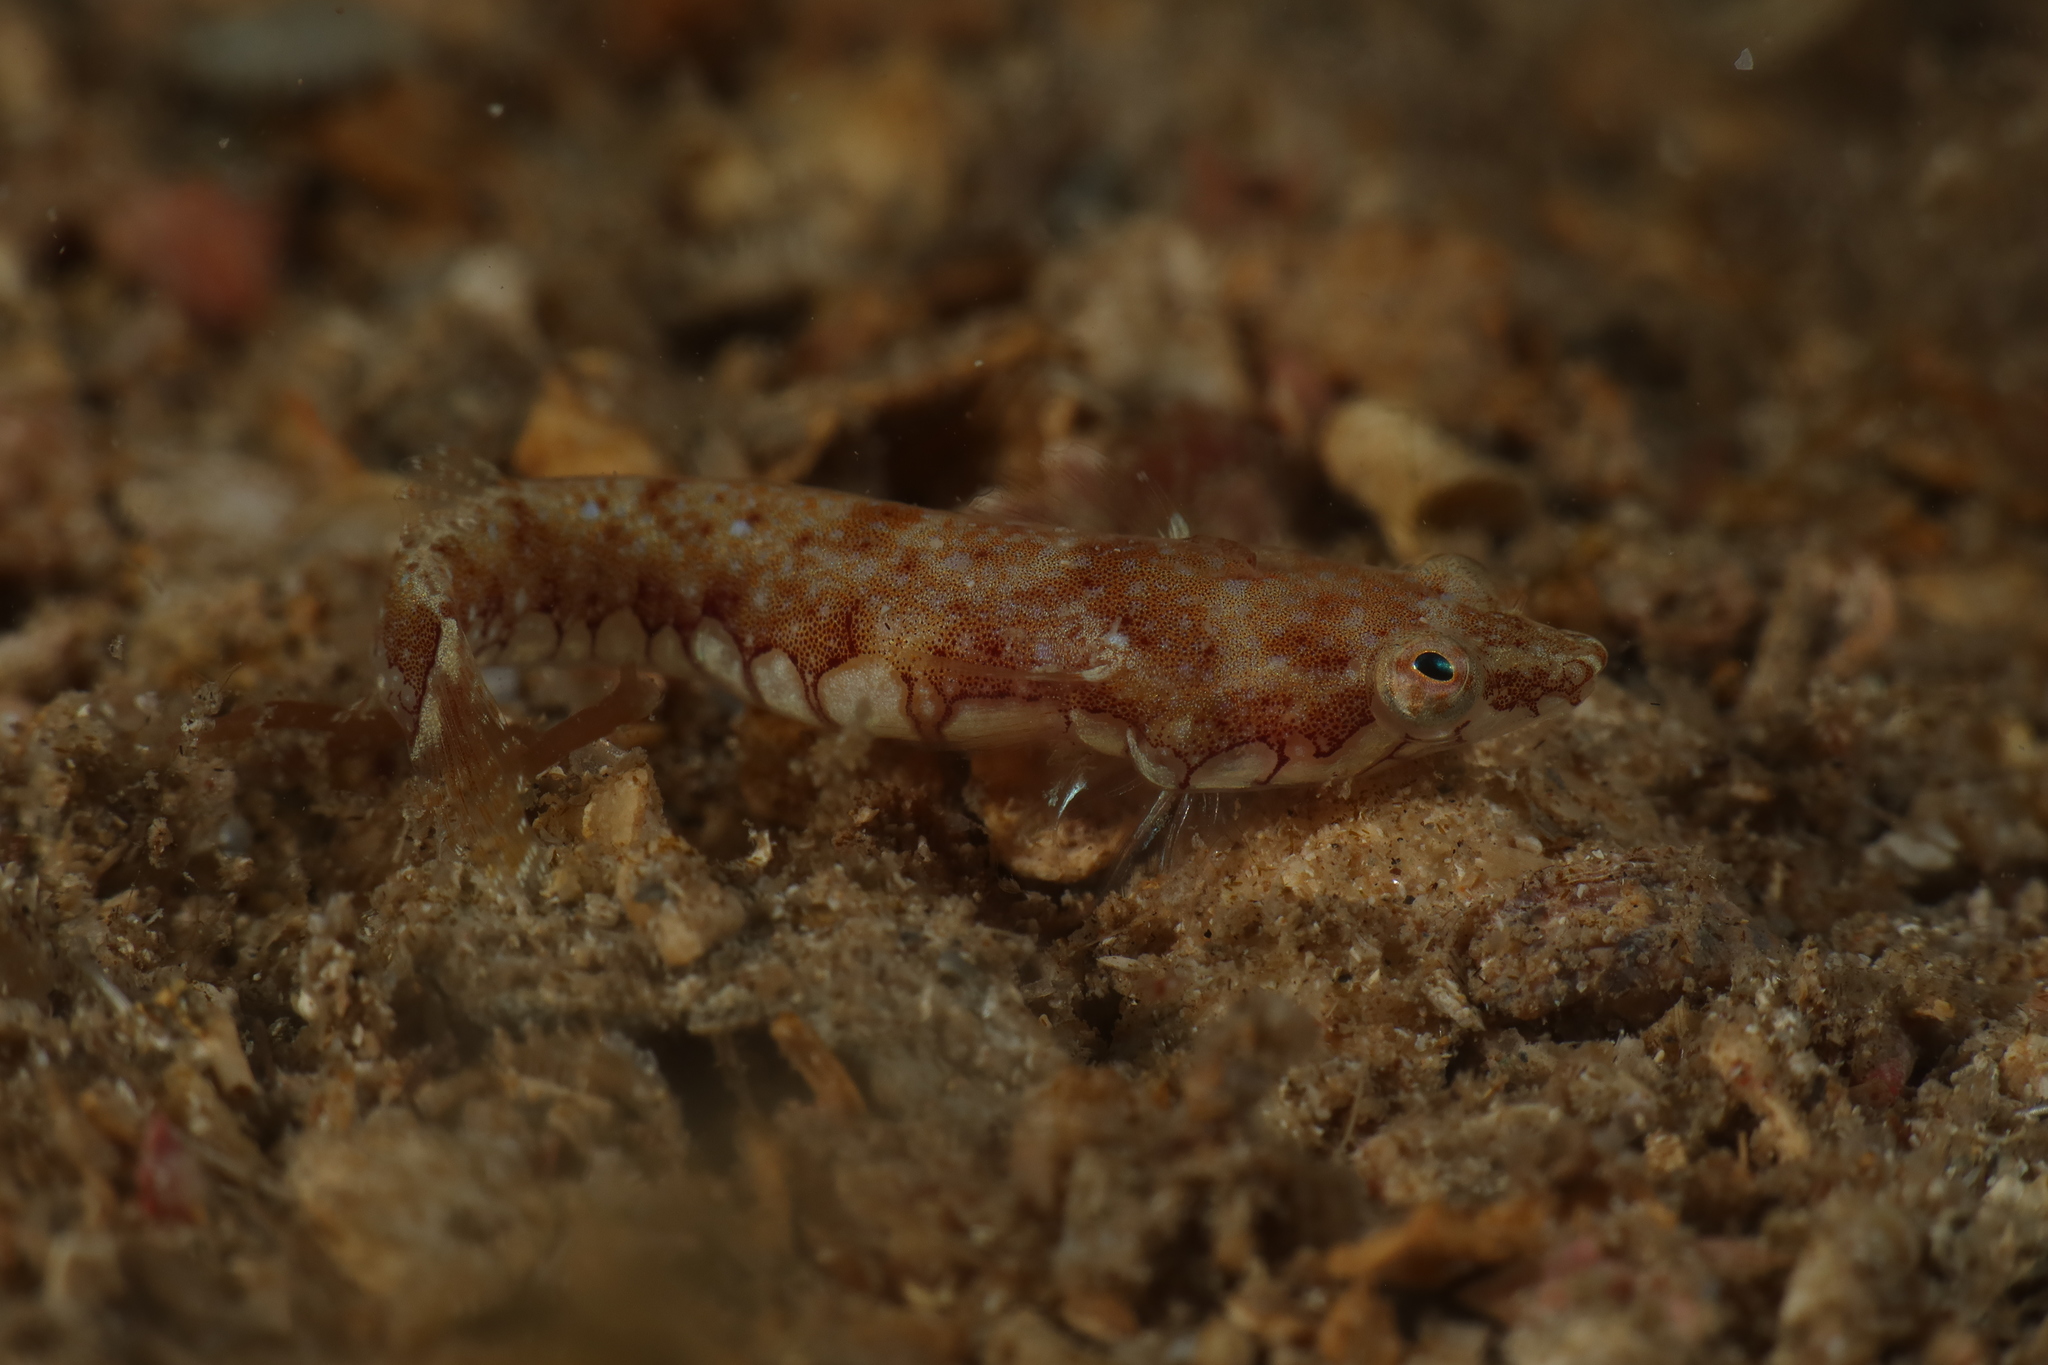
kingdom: Animalia
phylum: Chordata
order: Gobiesociformes
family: Gobiesocidae
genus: Diplecogaster
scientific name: Diplecogaster bimaculata
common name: Two-spotted clingfish
